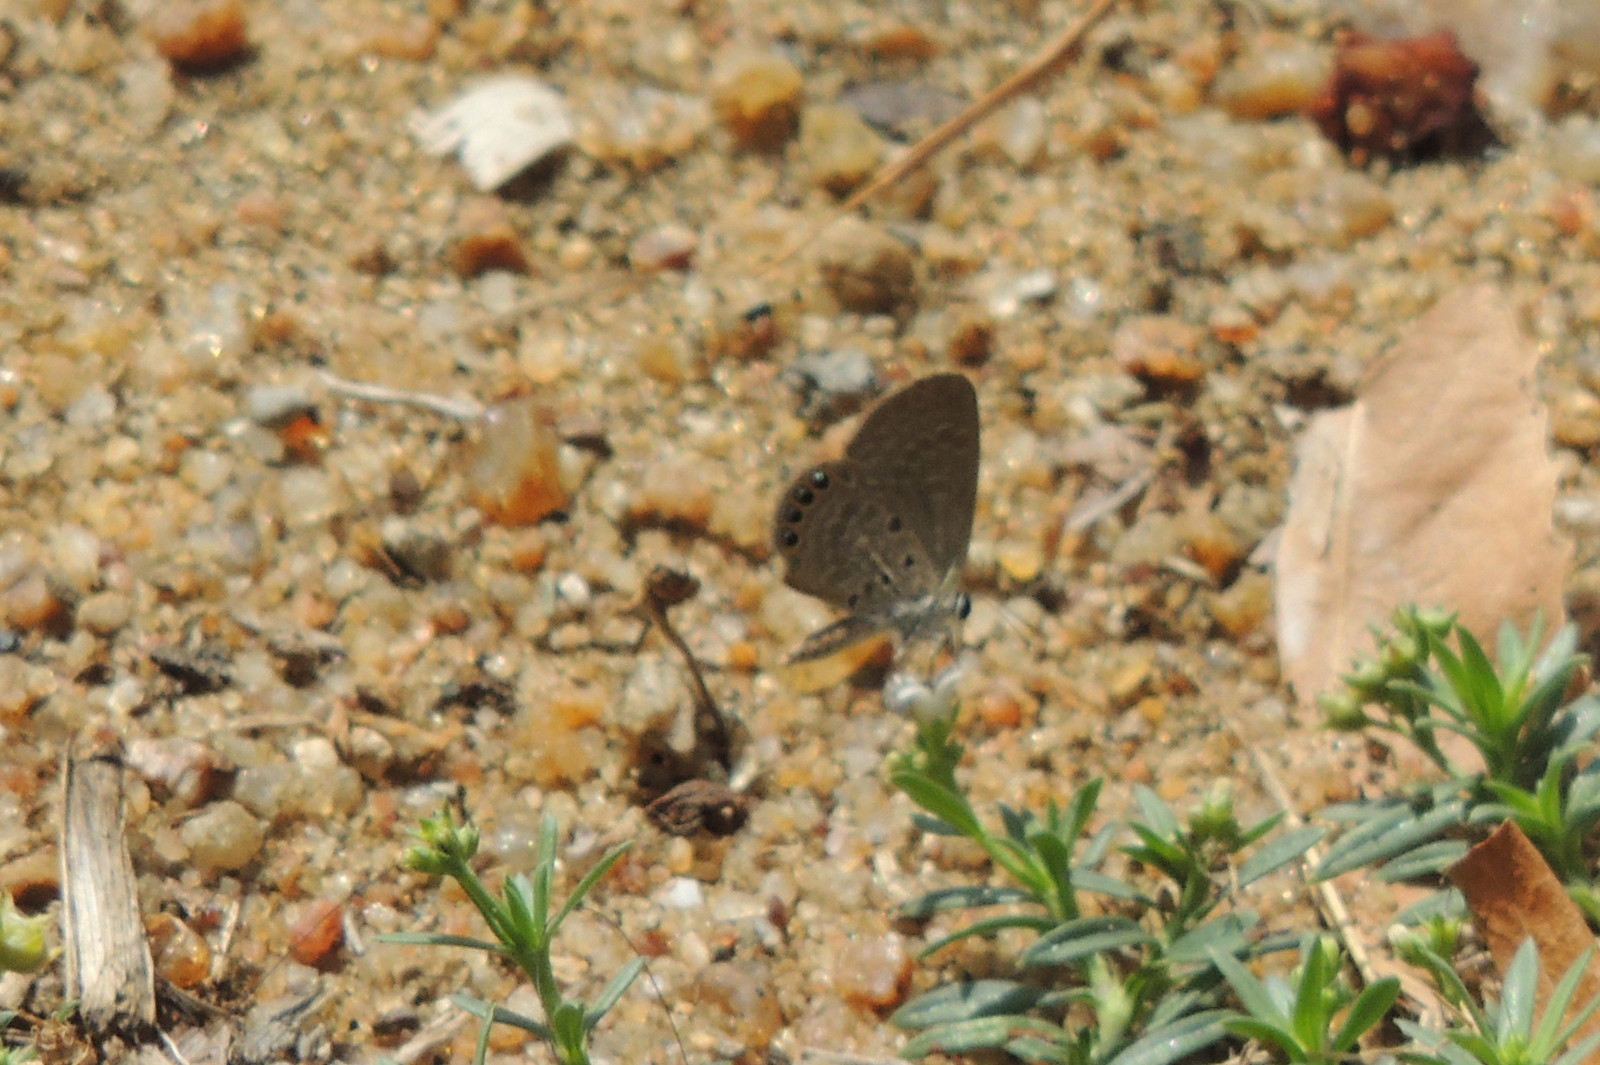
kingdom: Animalia
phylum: Arthropoda
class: Insecta
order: Lepidoptera
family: Lycaenidae
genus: Freyeria
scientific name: Freyeria putli
